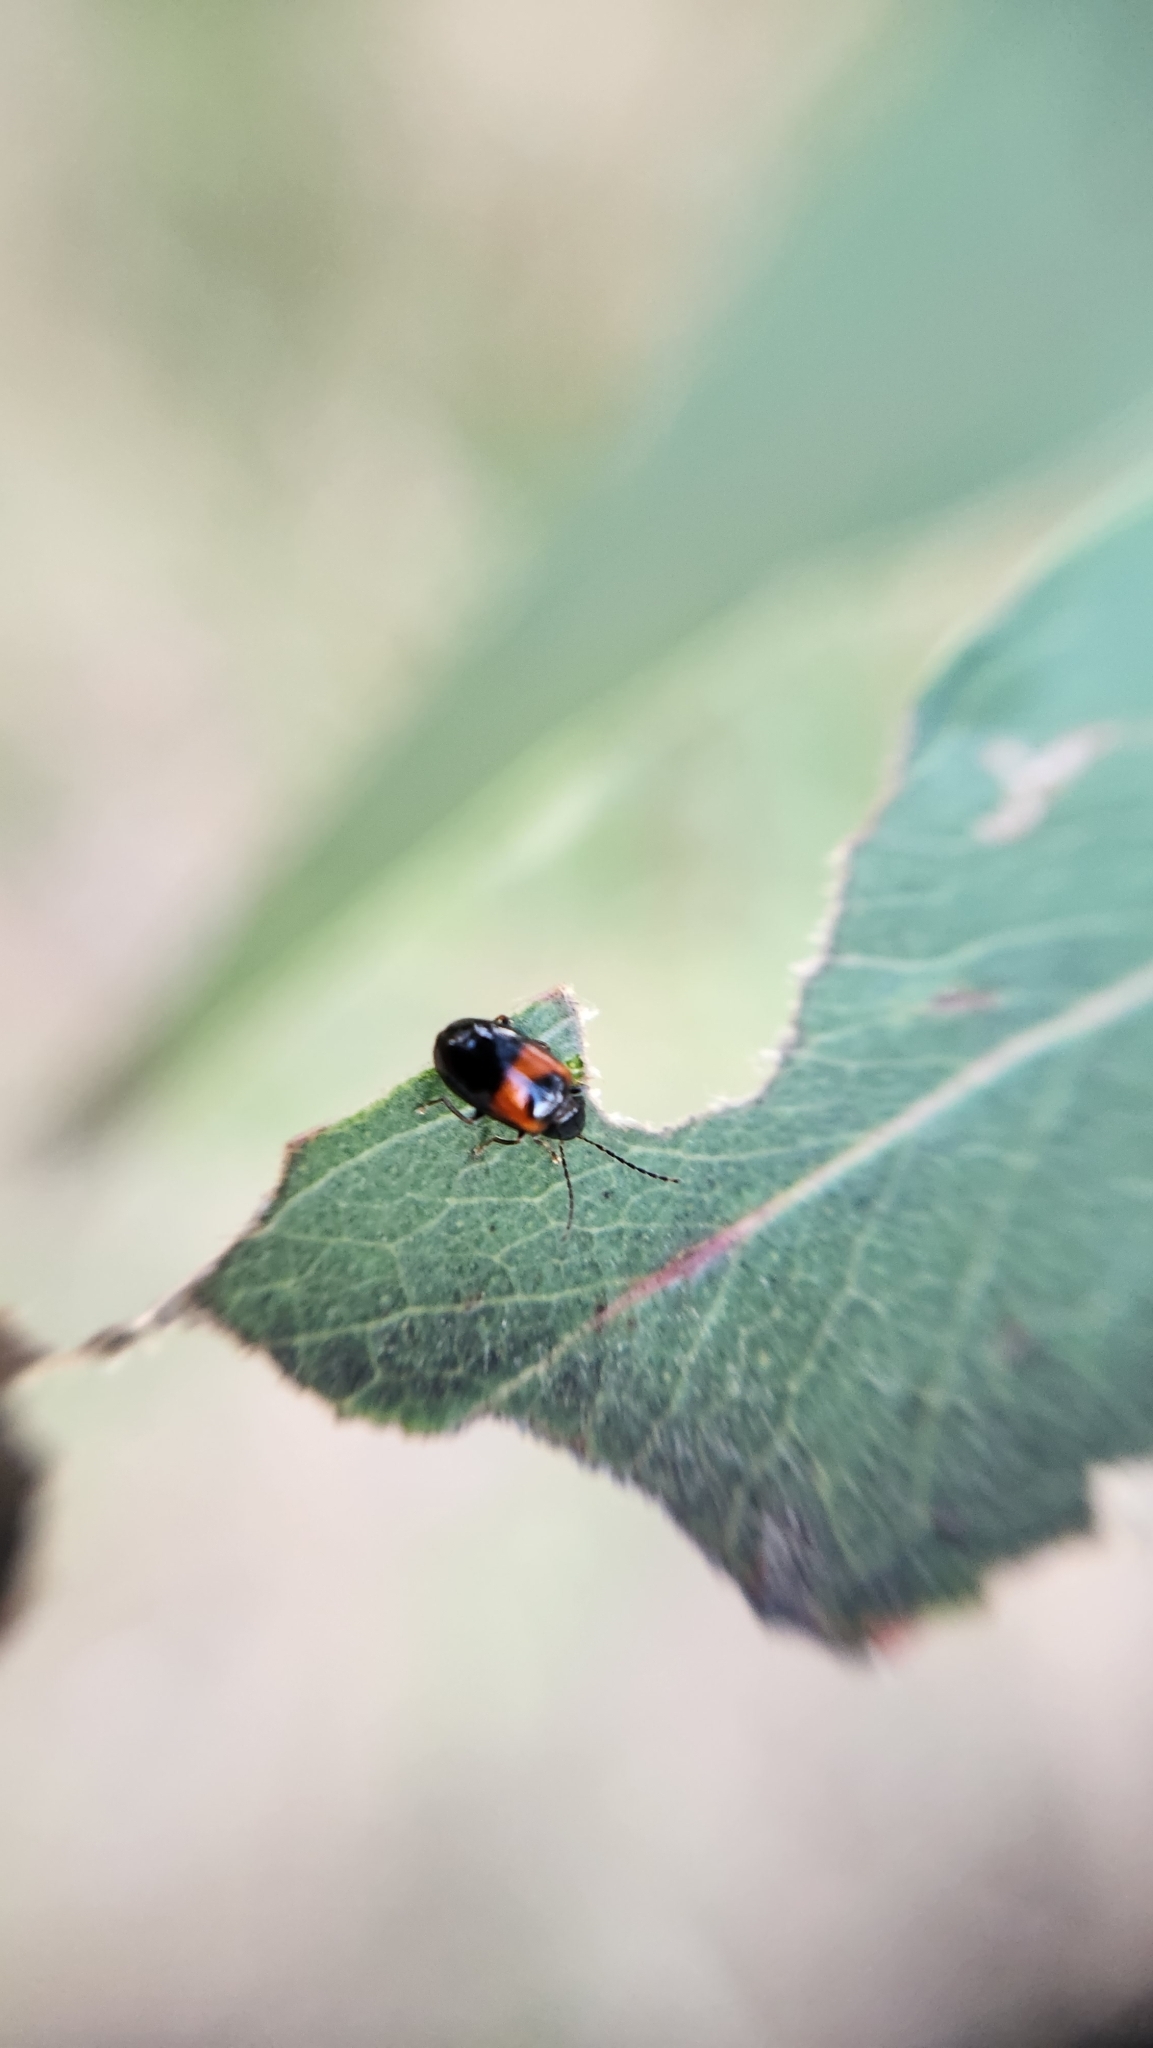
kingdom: Animalia
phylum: Arthropoda
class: Insecta
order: Coleoptera
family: Chrysomelidae
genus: Monolepta
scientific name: Monolepta
